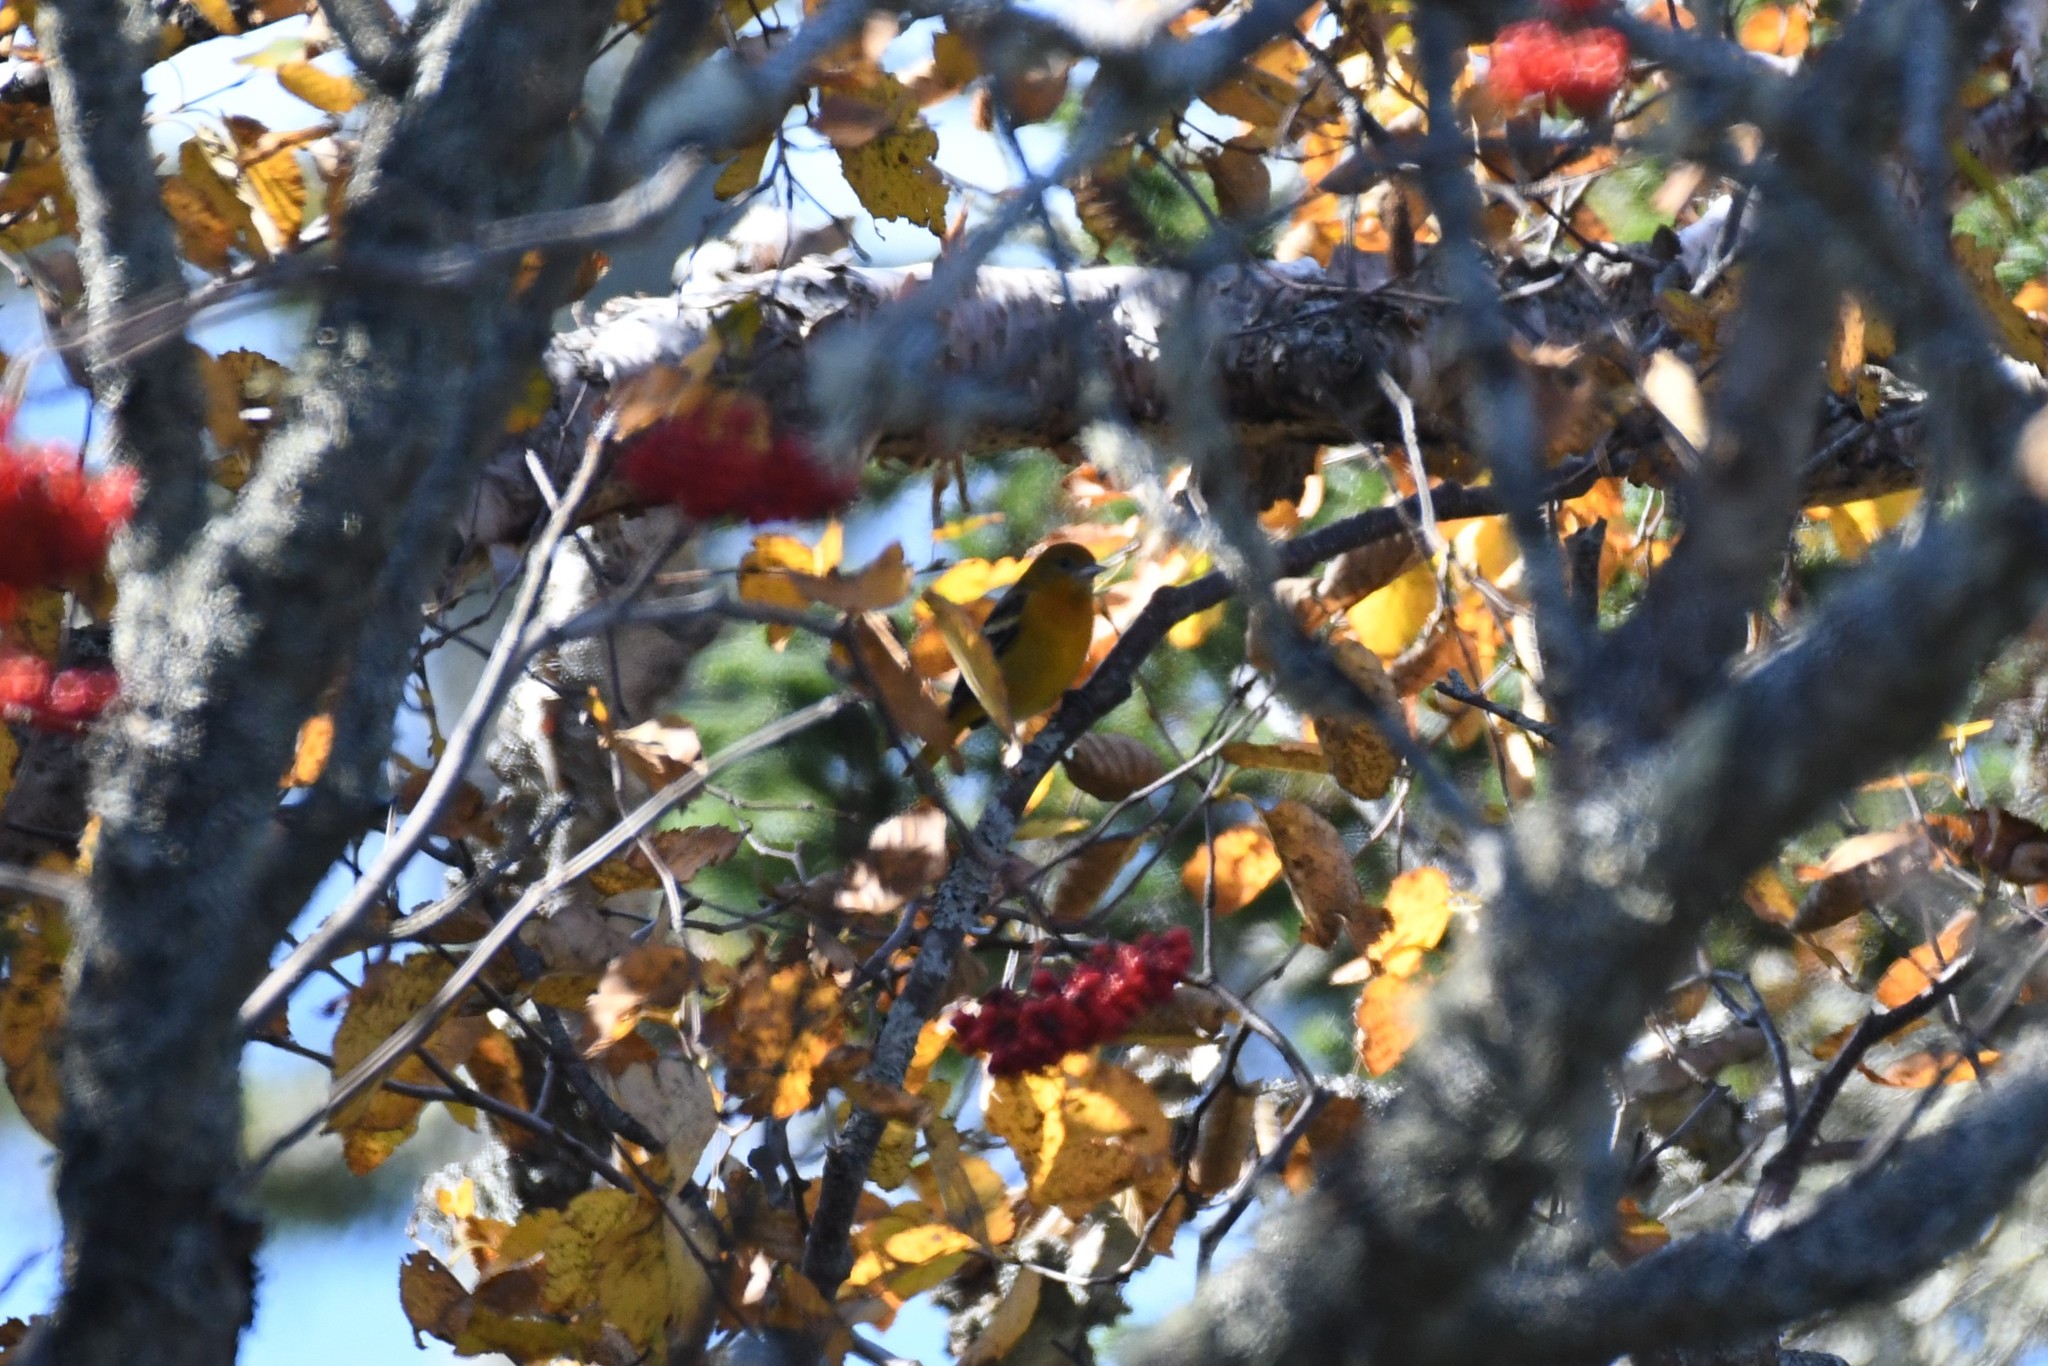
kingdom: Animalia
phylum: Chordata
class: Aves
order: Passeriformes
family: Icteridae
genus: Icterus
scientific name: Icterus galbula
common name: Baltimore oriole
